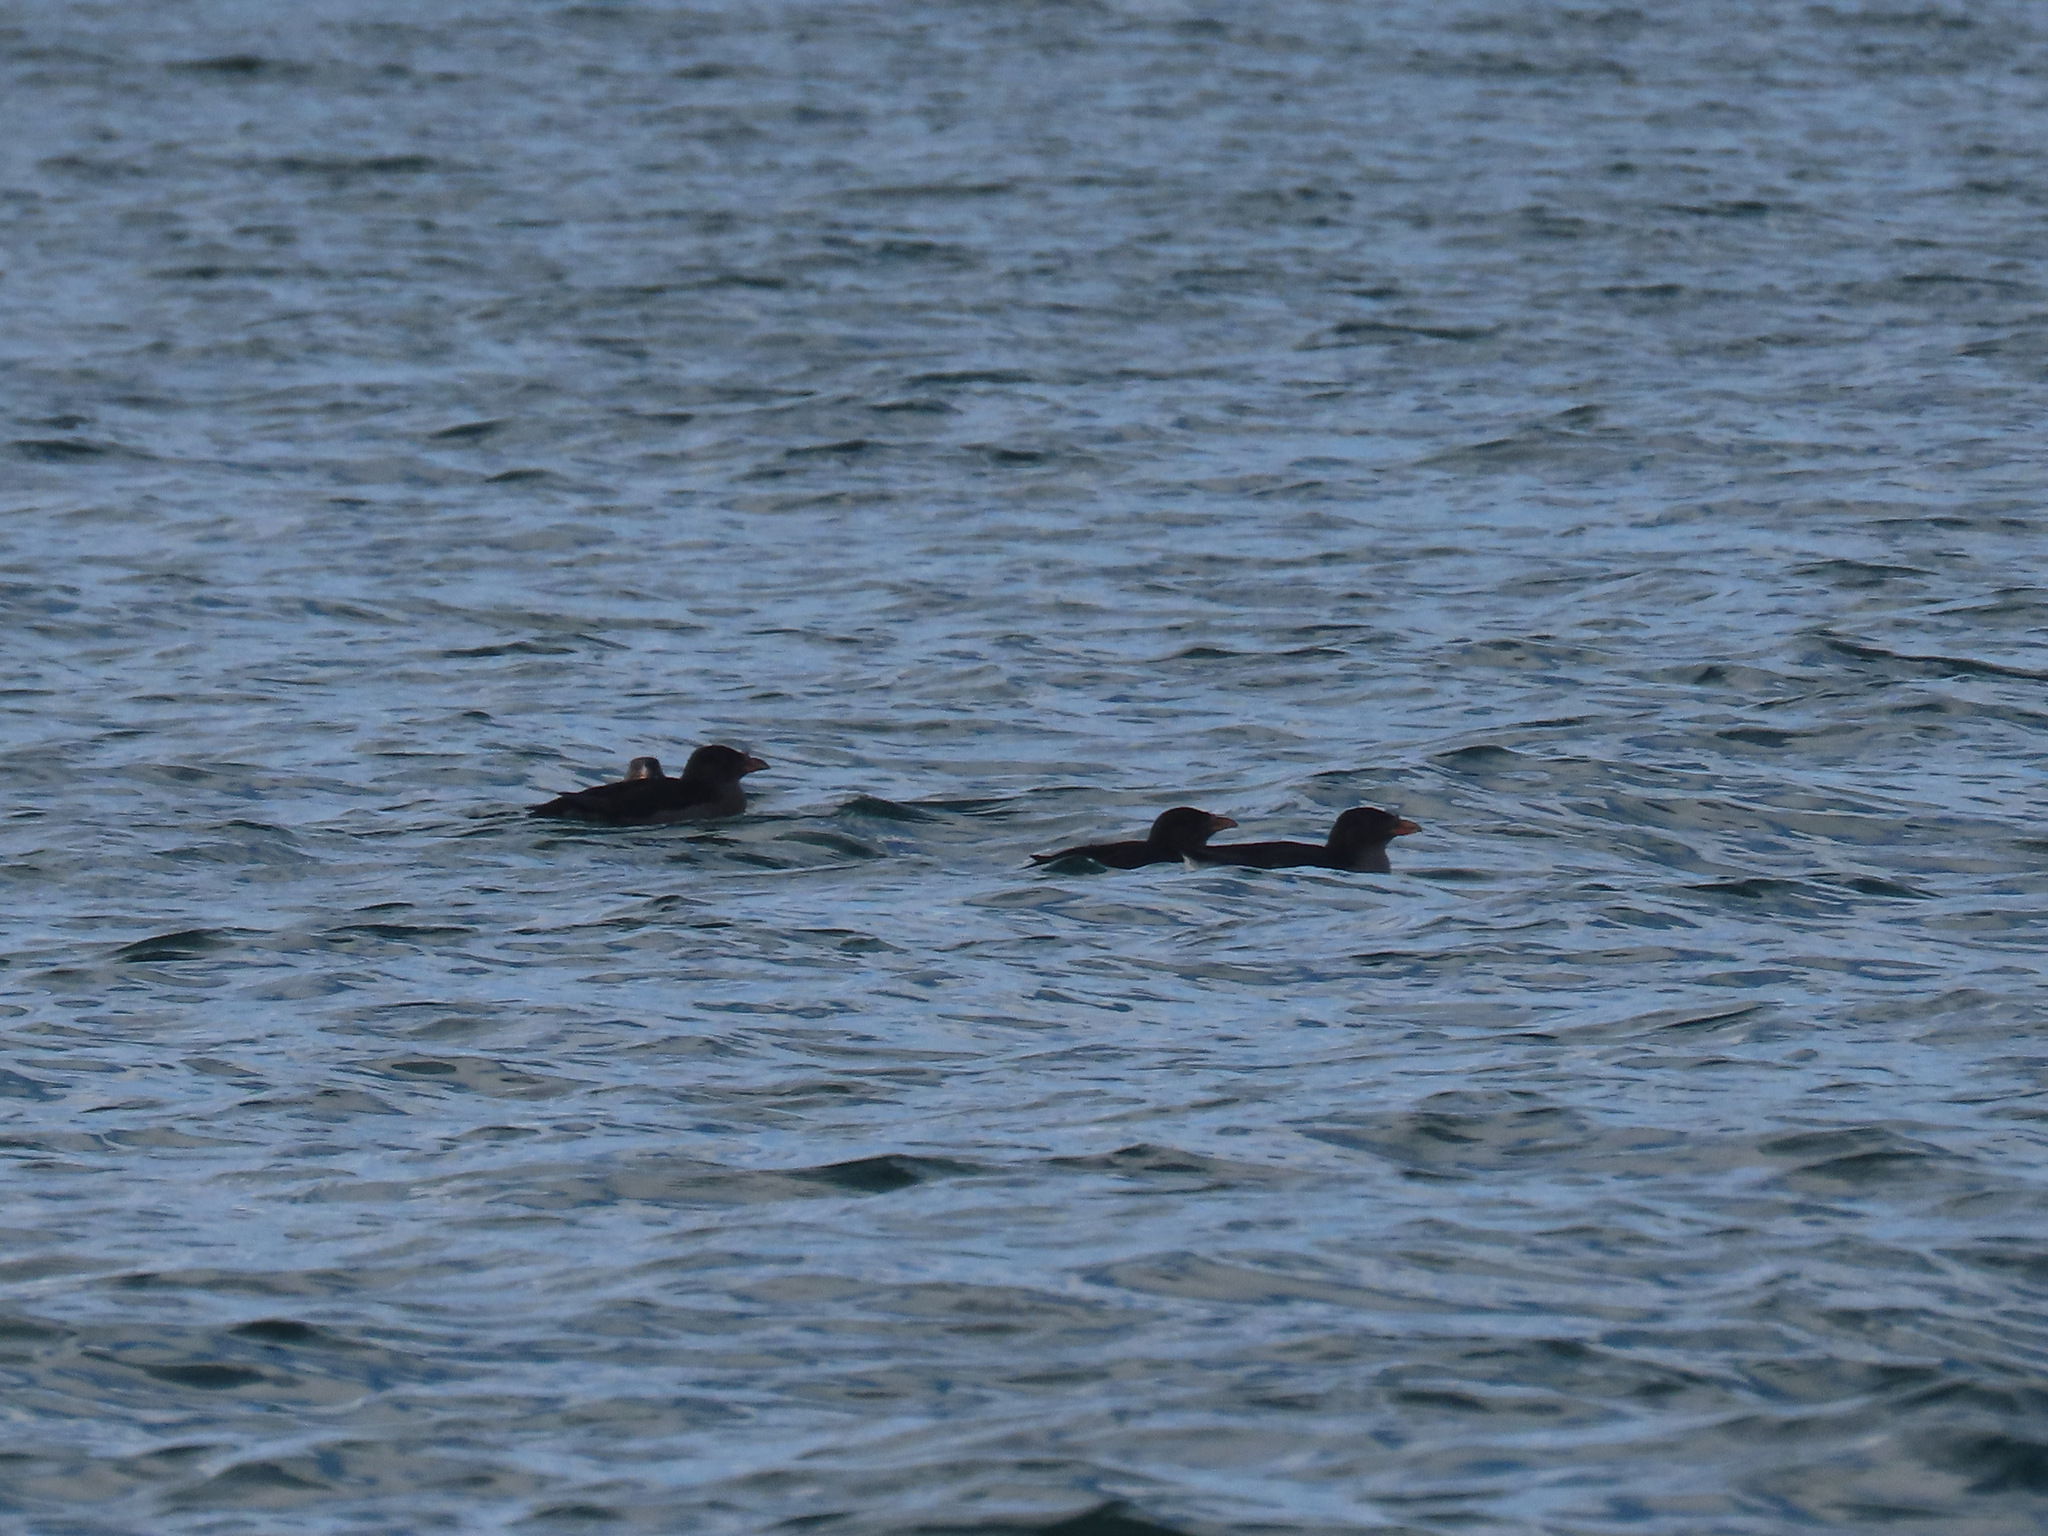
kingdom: Animalia
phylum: Chordata
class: Aves
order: Charadriiformes
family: Alcidae
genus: Cerorhinca
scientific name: Cerorhinca monocerata
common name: Rhinoceros auklet
